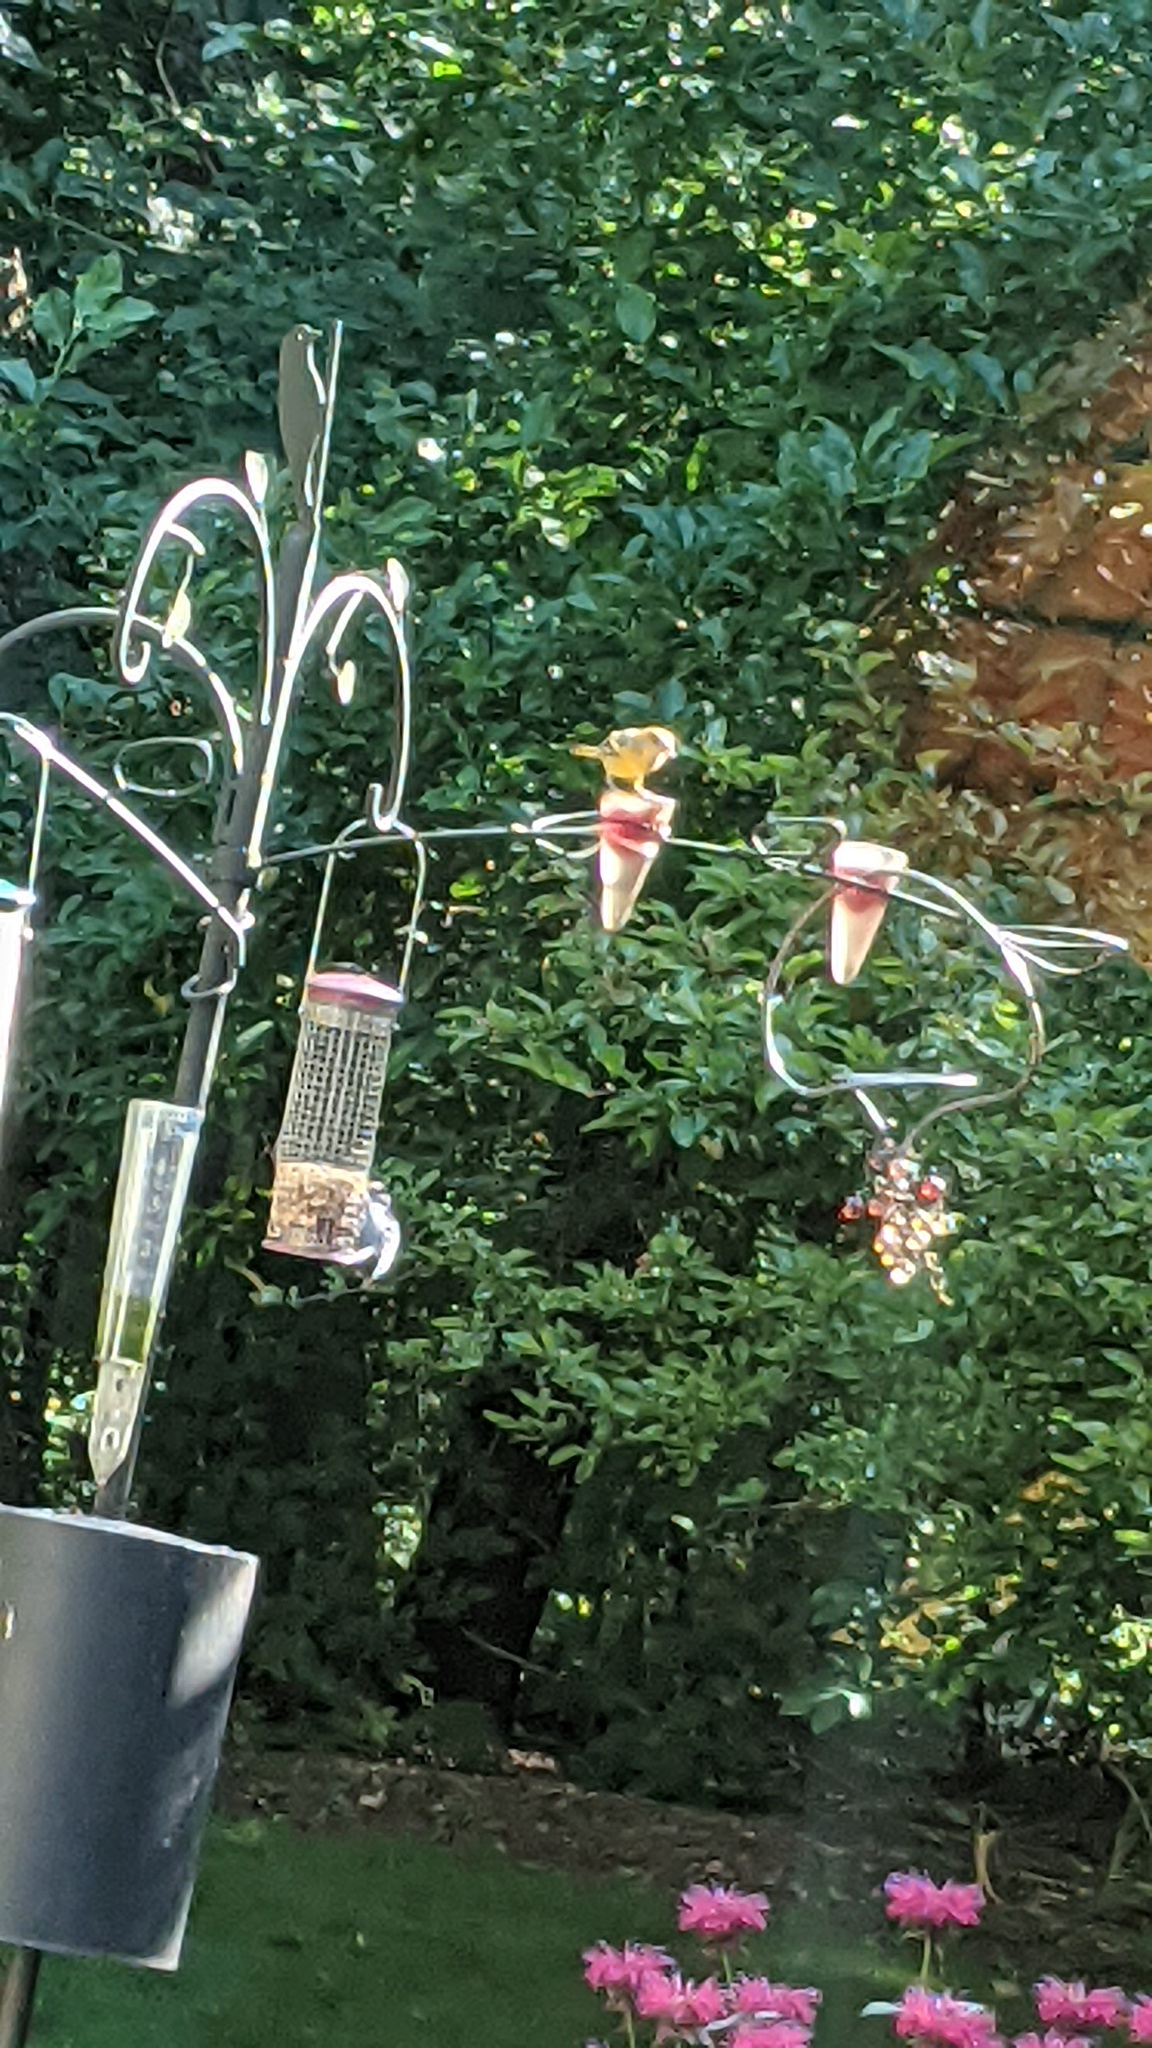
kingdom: Animalia
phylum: Chordata
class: Aves
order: Passeriformes
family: Icteridae
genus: Icterus
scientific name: Icterus galbula
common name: Baltimore oriole
